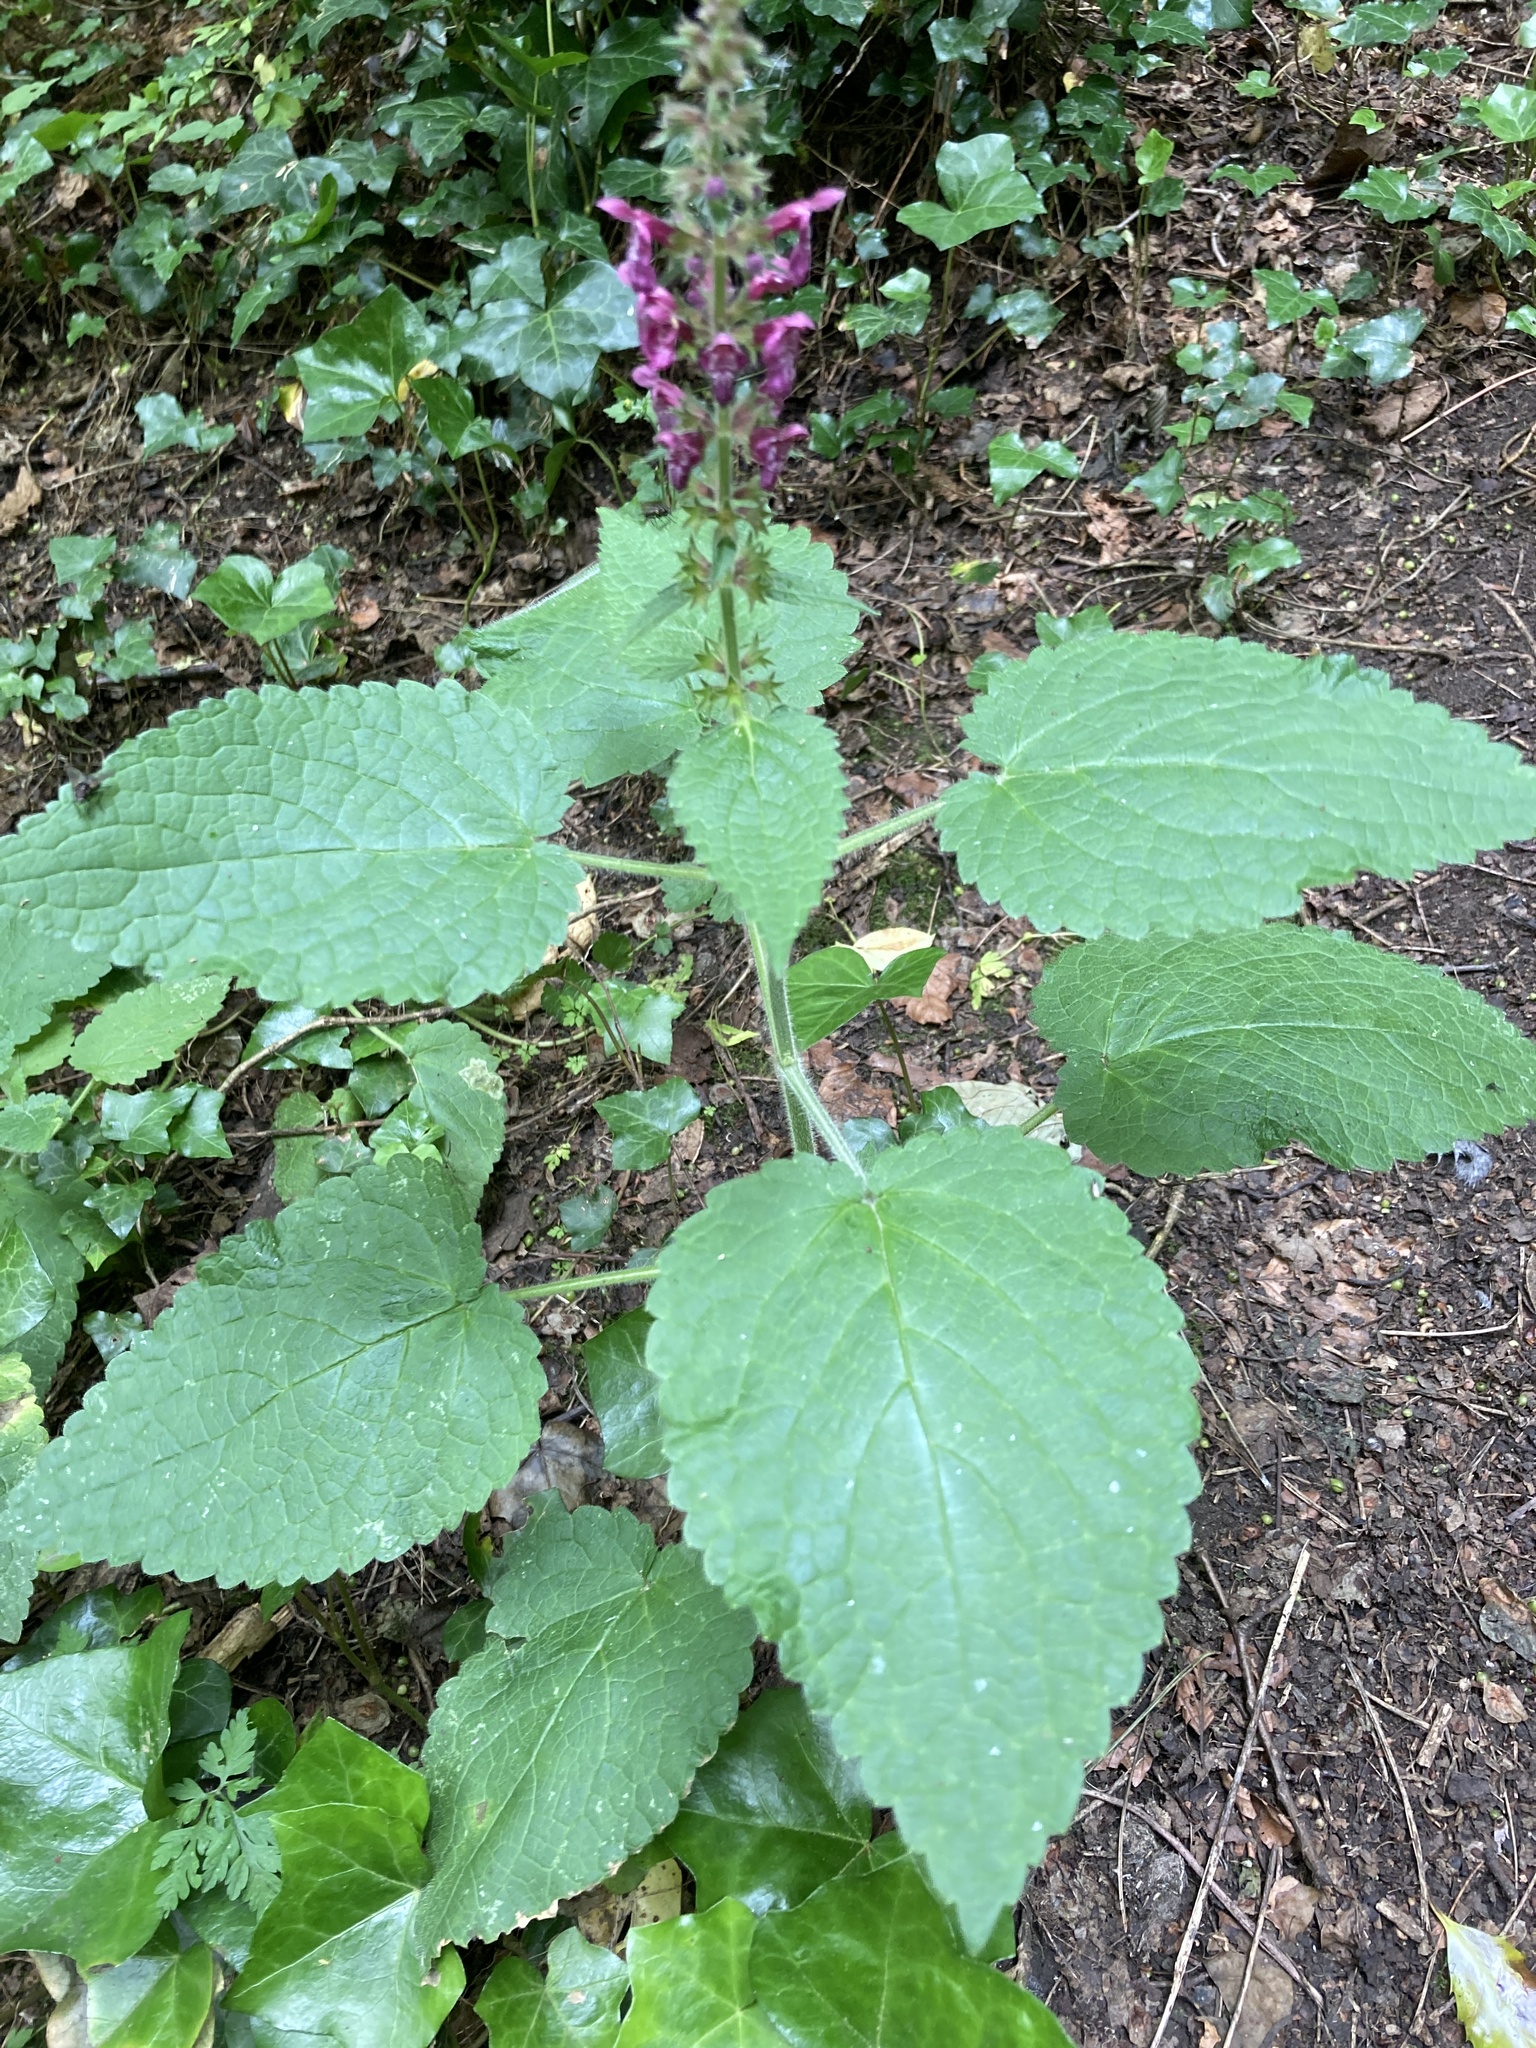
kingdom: Plantae
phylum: Tracheophyta
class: Magnoliopsida
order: Lamiales
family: Lamiaceae
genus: Stachys
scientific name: Stachys sylvatica
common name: Hedge woundwort
